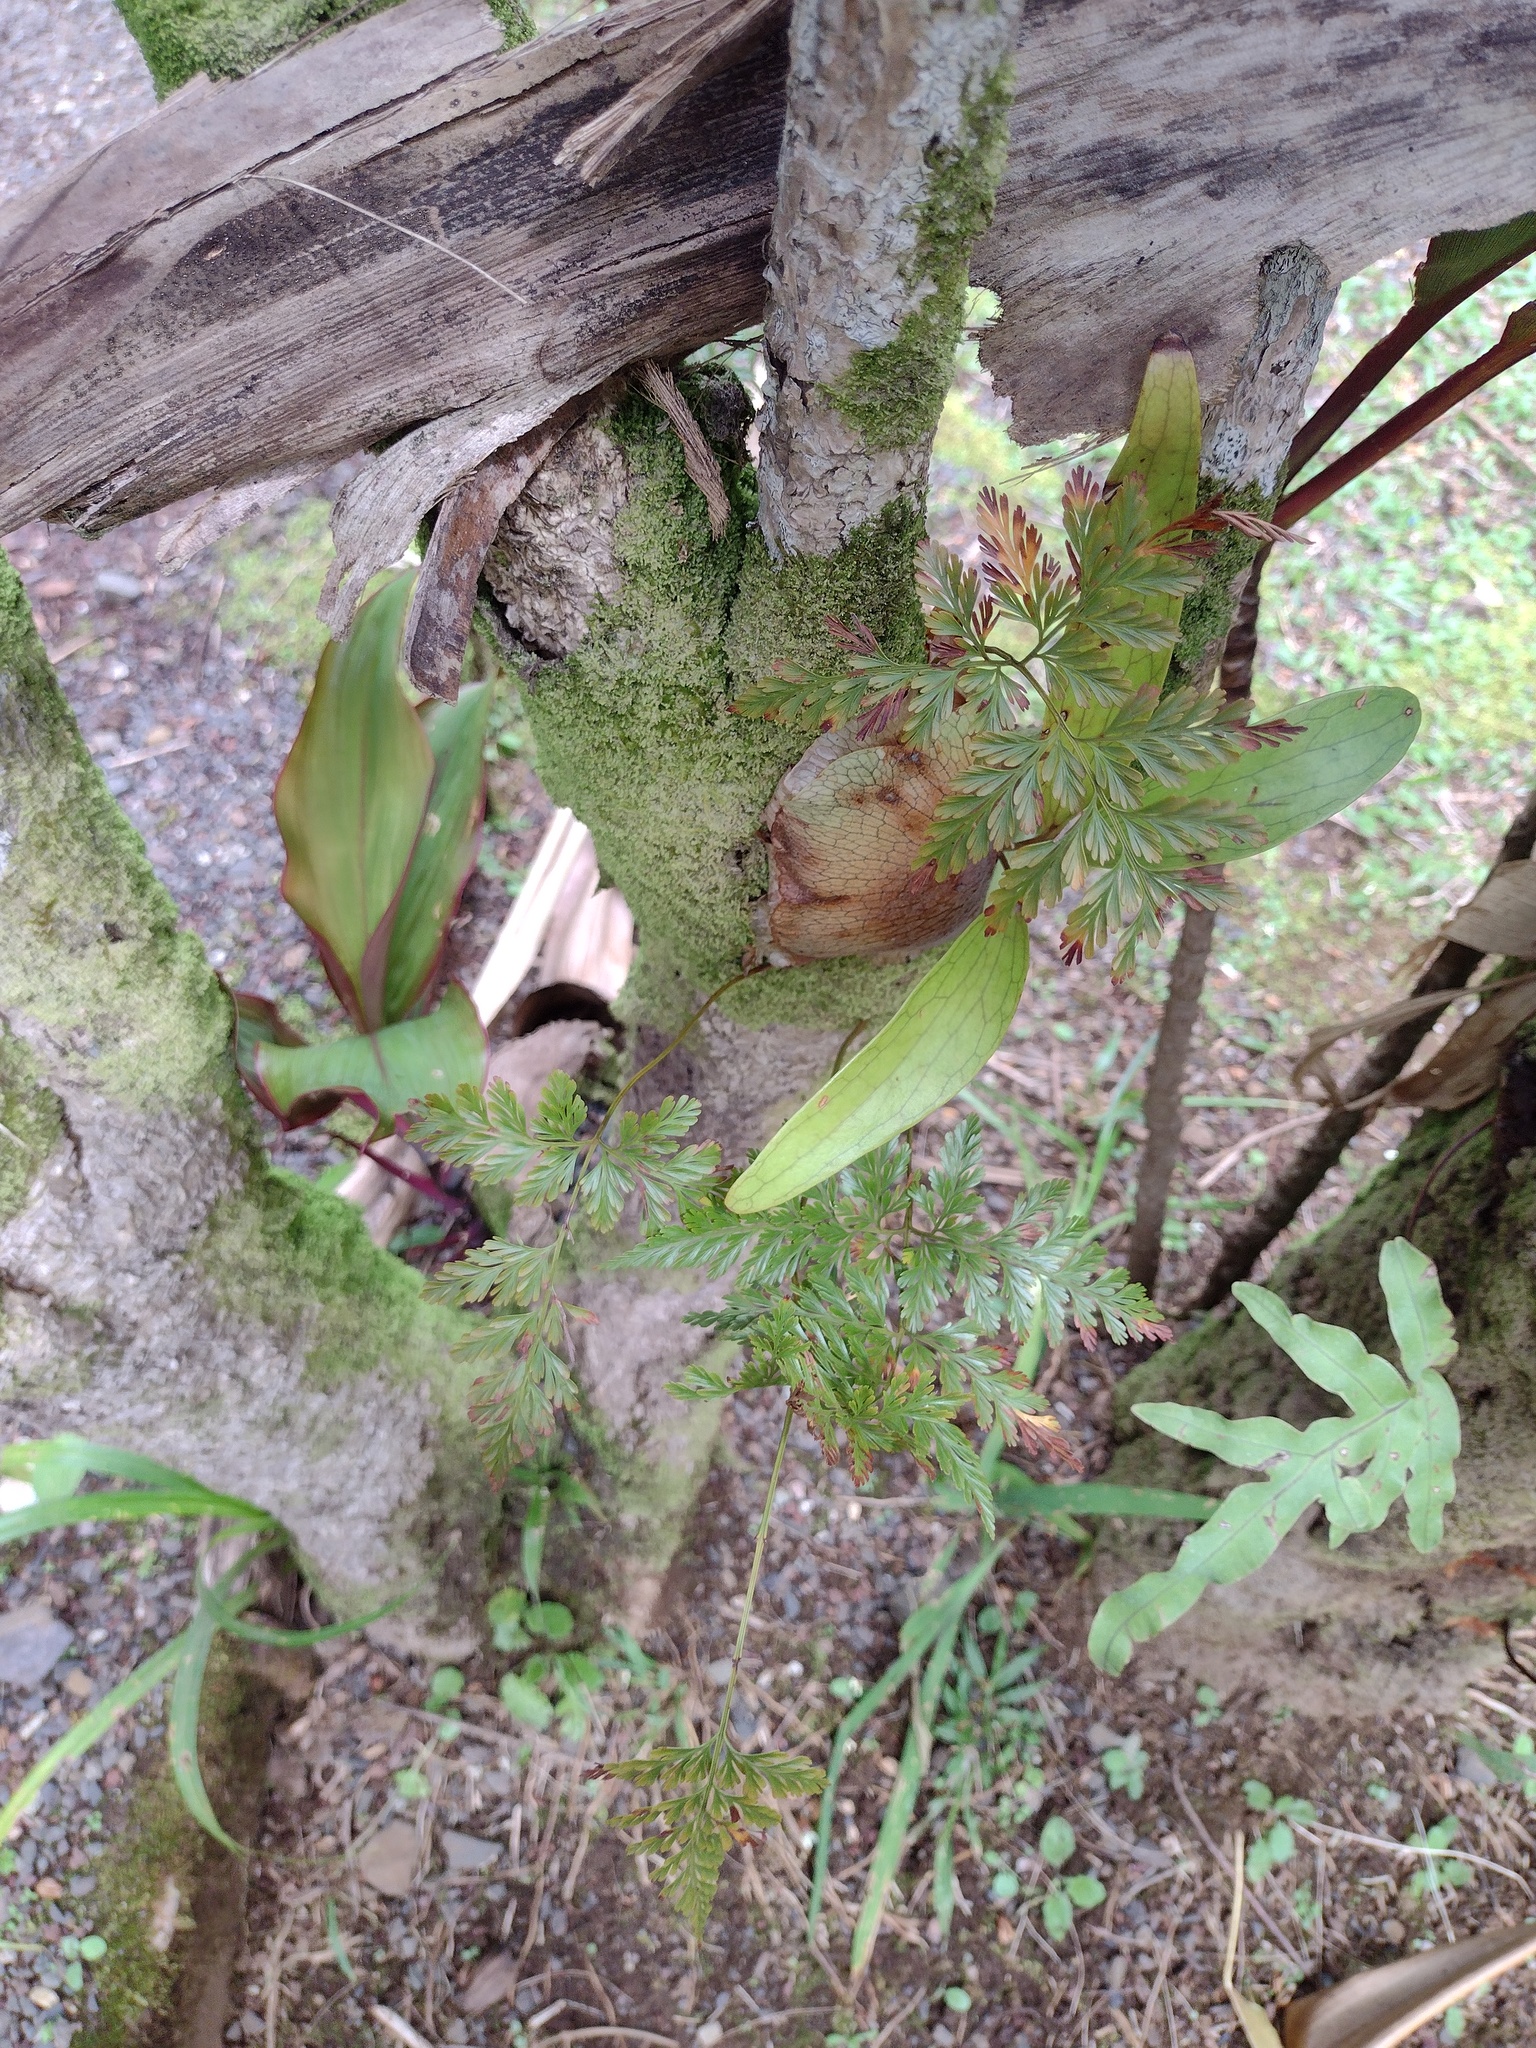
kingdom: Plantae
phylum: Tracheophyta
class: Polypodiopsida
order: Polypodiales
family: Davalliaceae
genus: Davallia
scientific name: Davallia fejeensis
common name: Lacy hare's-foot fern
